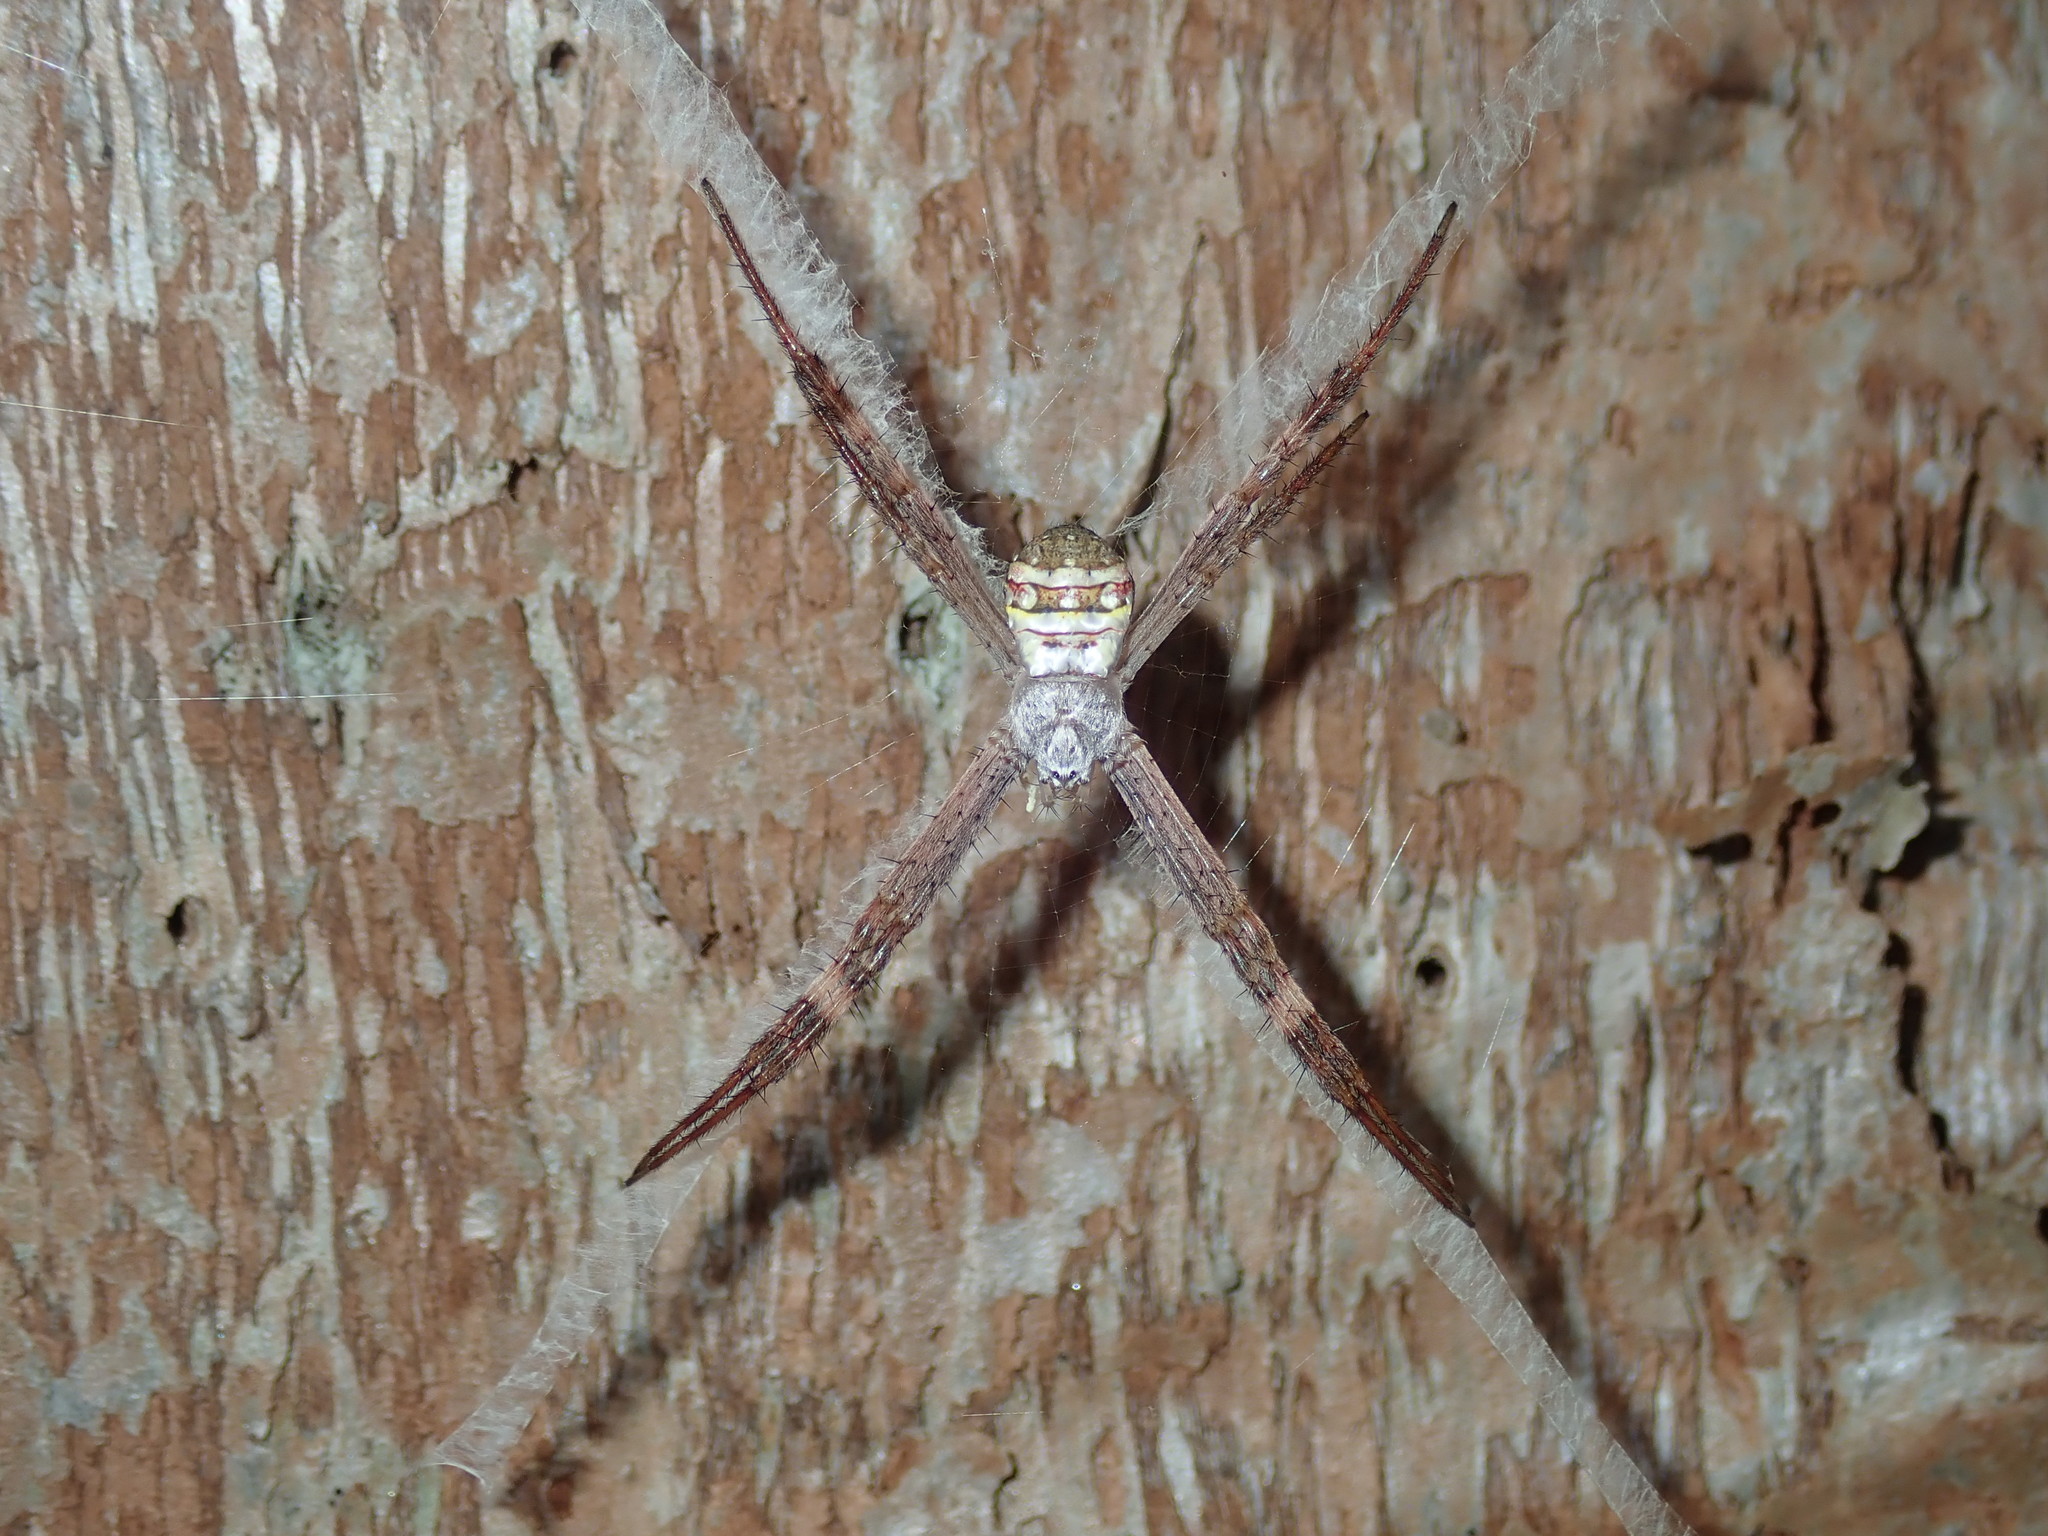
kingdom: Animalia
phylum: Arthropoda
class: Arachnida
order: Araneae
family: Araneidae
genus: Argiope
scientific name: Argiope keyserlingi
